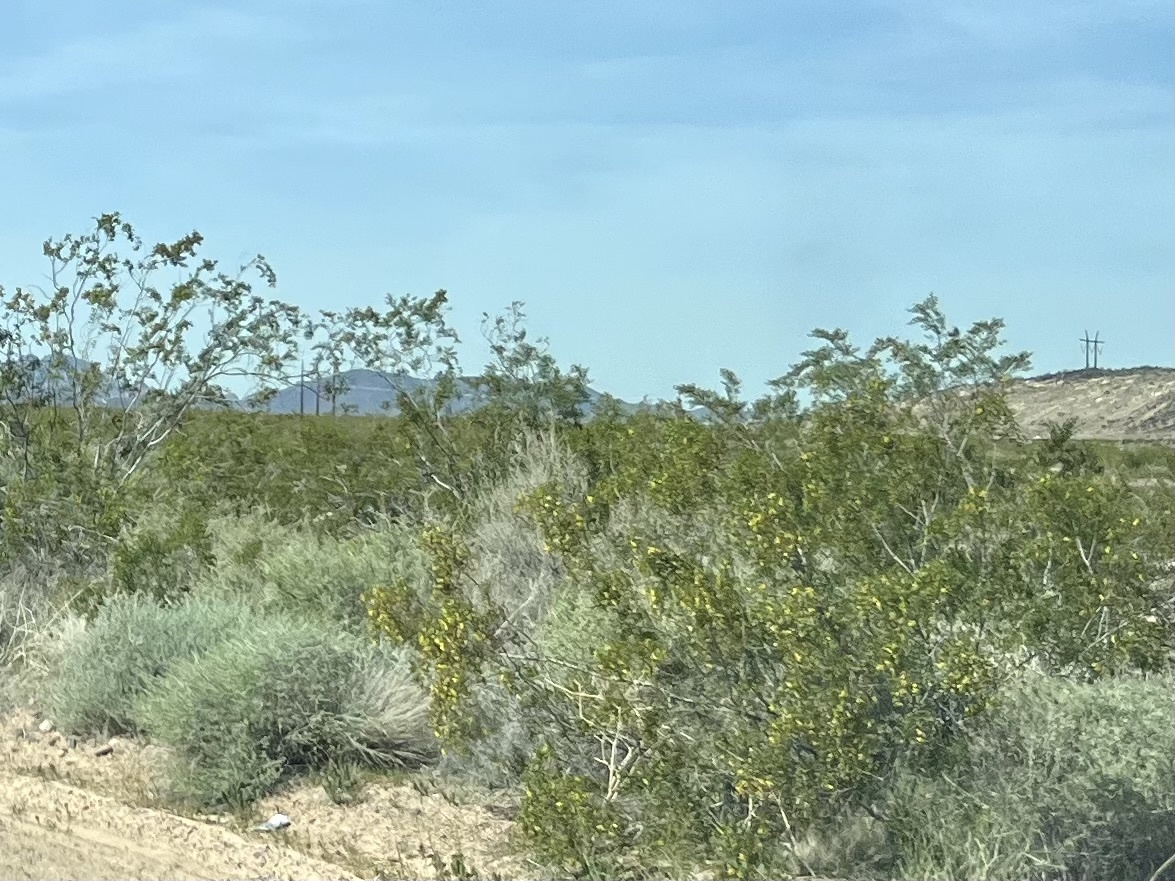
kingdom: Plantae
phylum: Tracheophyta
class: Magnoliopsida
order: Zygophyllales
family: Zygophyllaceae
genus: Larrea
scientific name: Larrea tridentata
